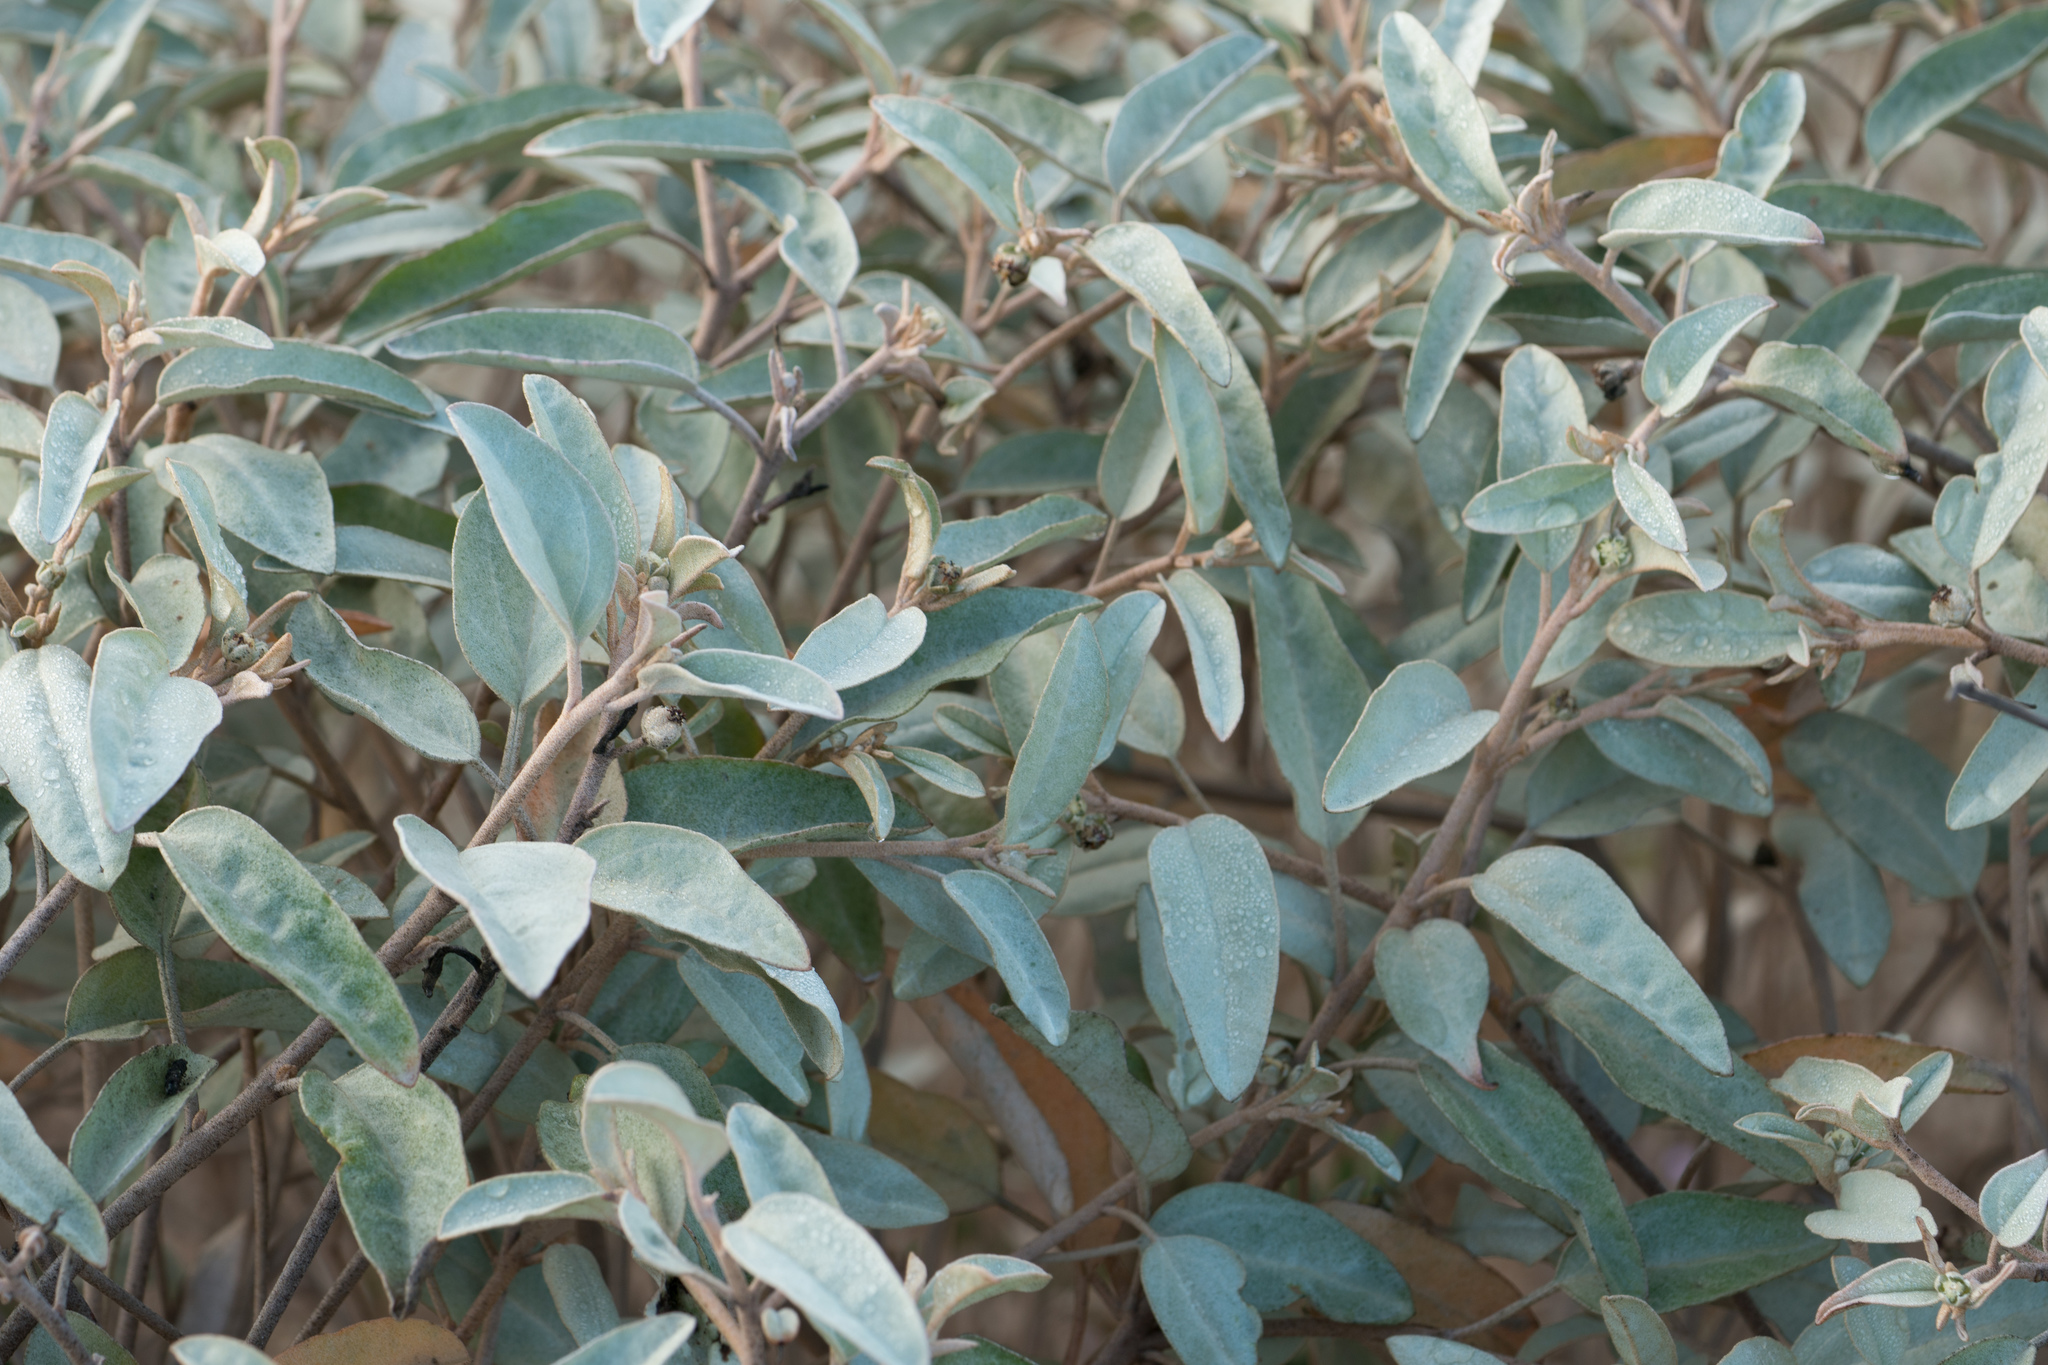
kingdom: Plantae
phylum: Tracheophyta
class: Magnoliopsida
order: Malpighiales
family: Euphorbiaceae
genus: Croton
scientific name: Croton californicus
